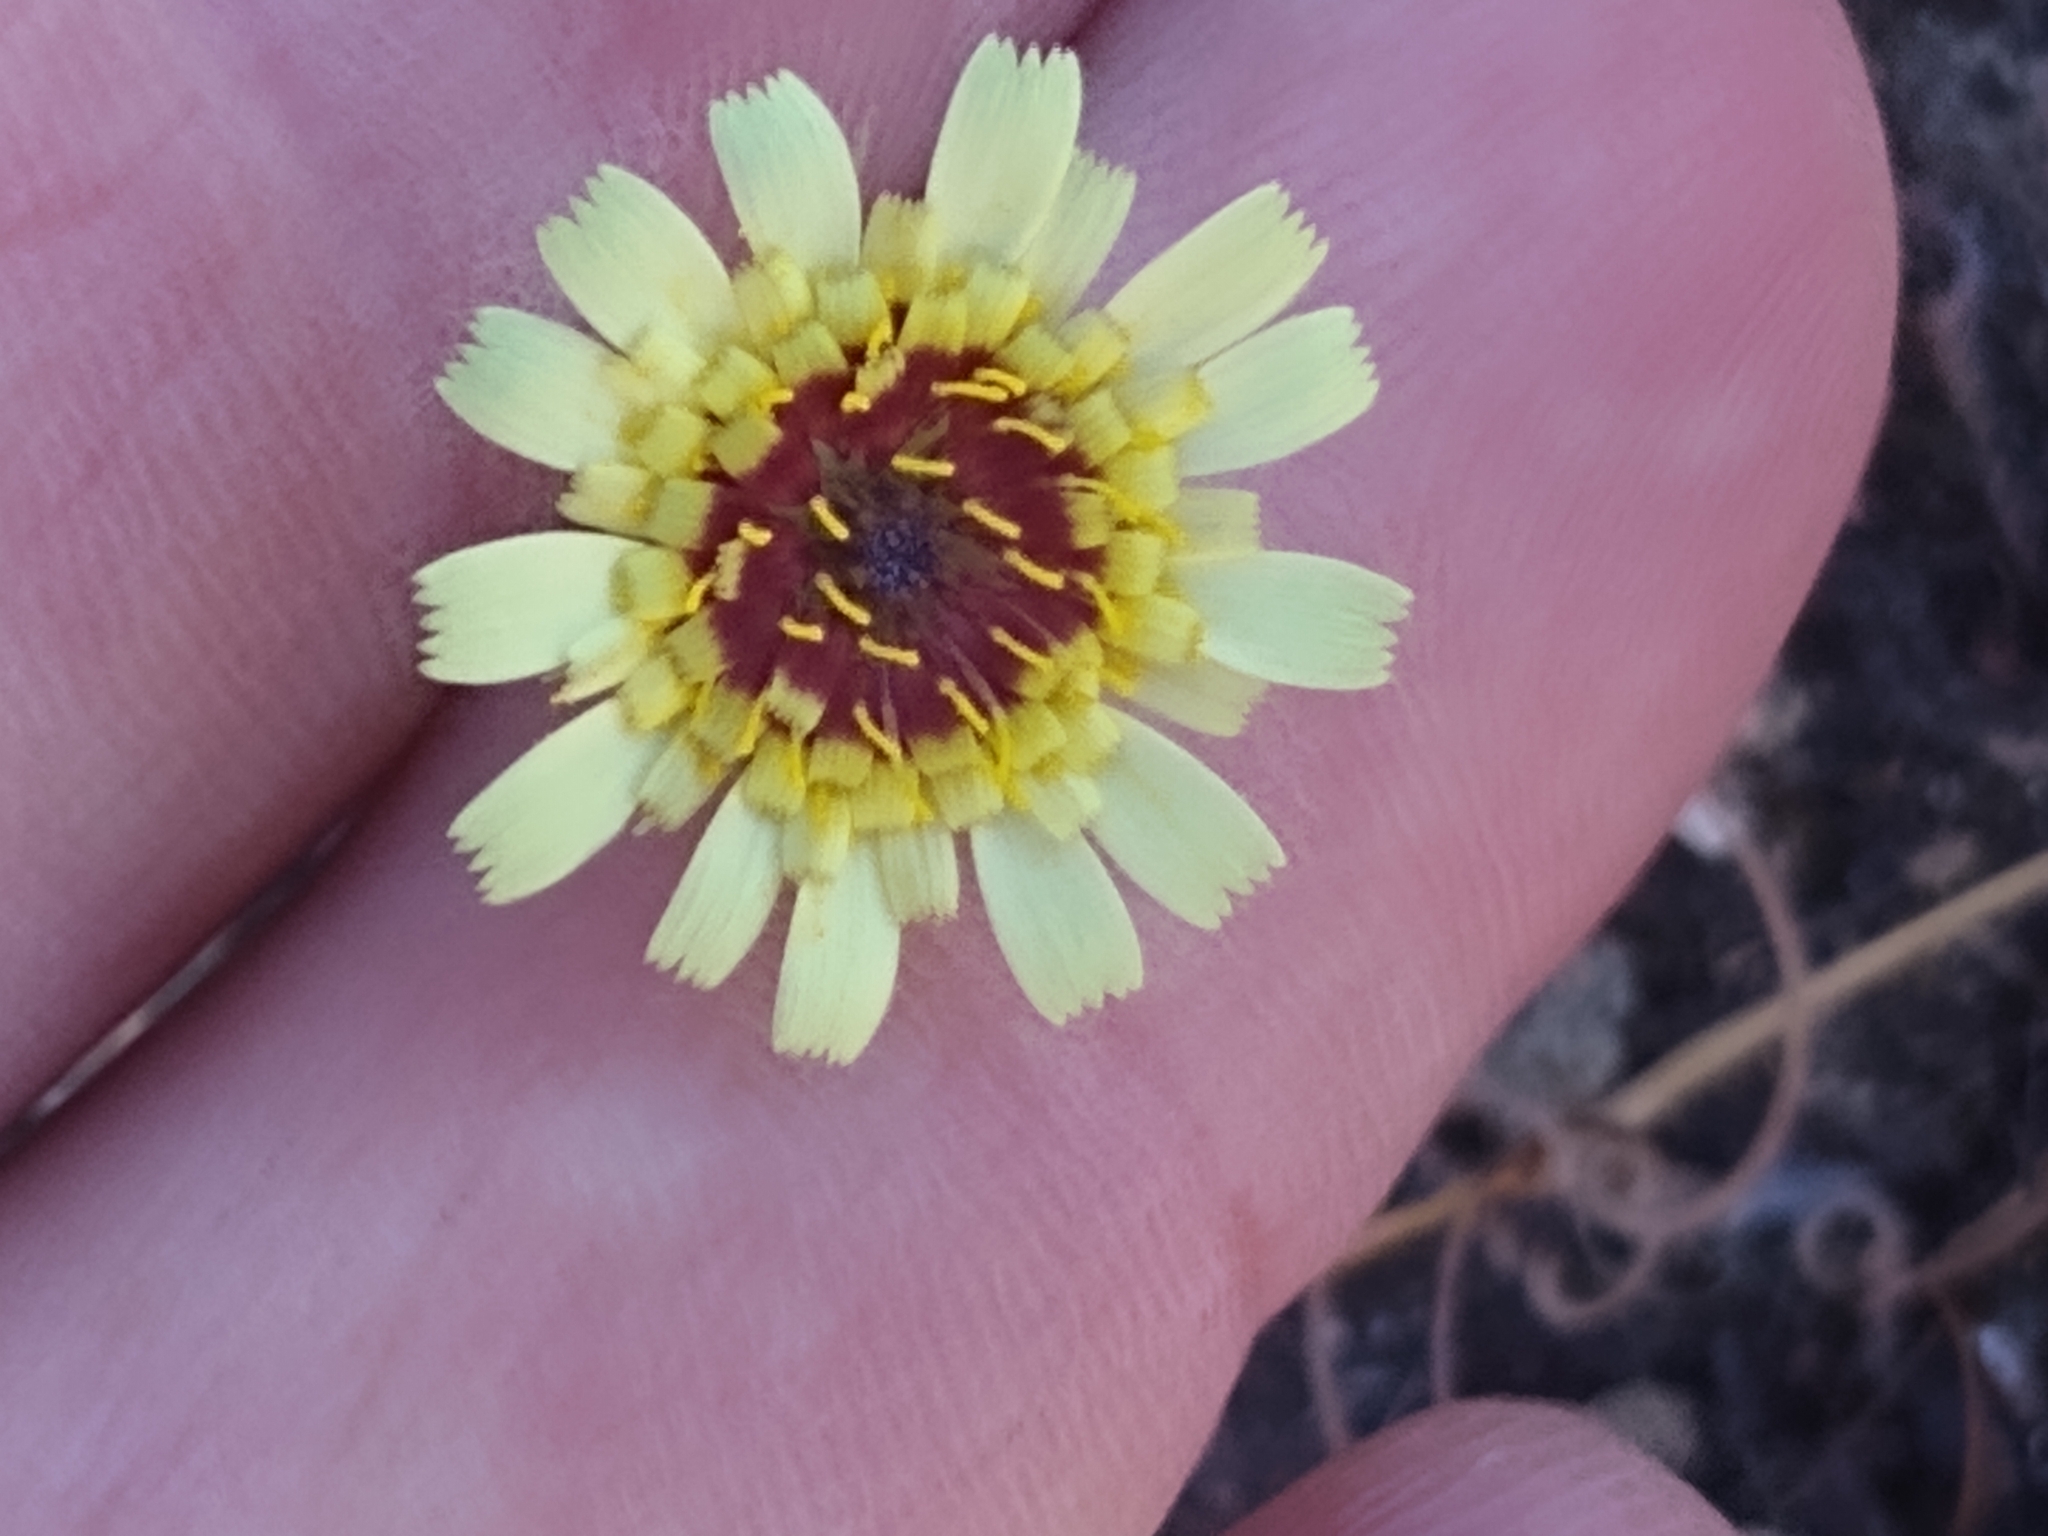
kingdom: Plantae
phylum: Tracheophyta
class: Magnoliopsida
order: Asterales
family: Asteraceae
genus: Tolpis
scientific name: Tolpis barbata
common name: Yellow hawkweed
